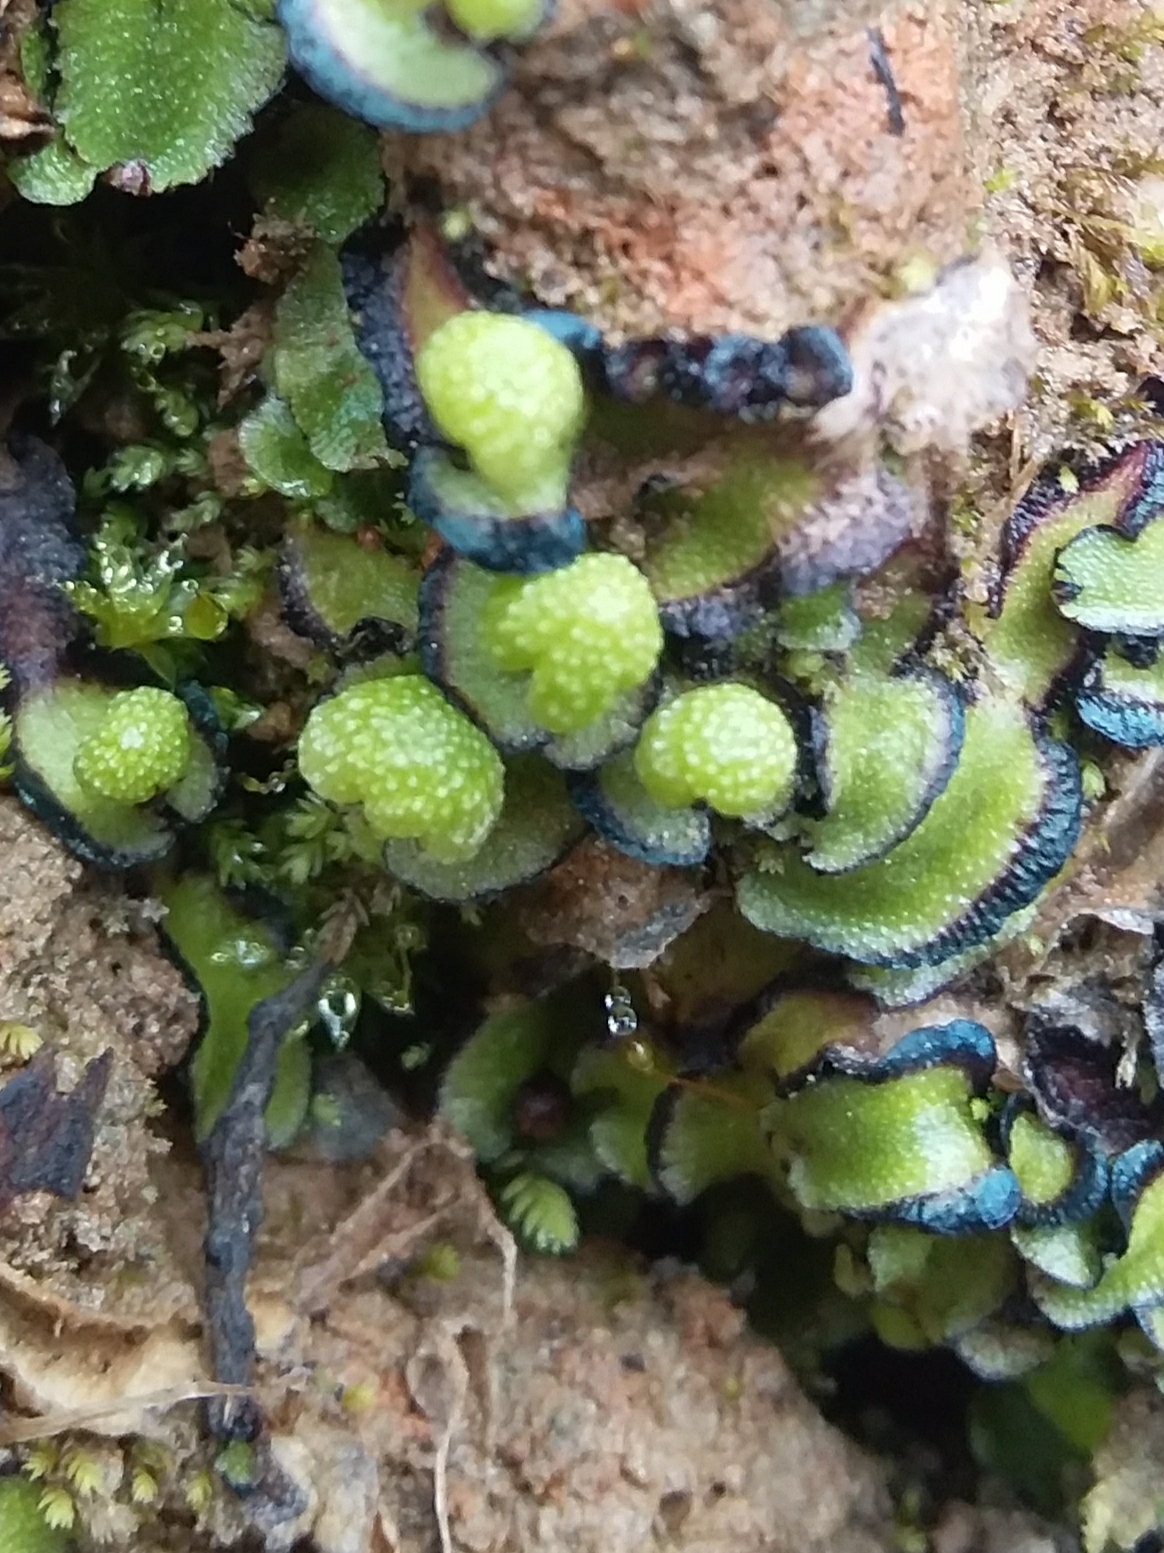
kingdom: Plantae
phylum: Marchantiophyta
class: Marchantiopsida
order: Marchantiales
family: Aytoniaceae
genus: Asterella
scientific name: Asterella drummondii
